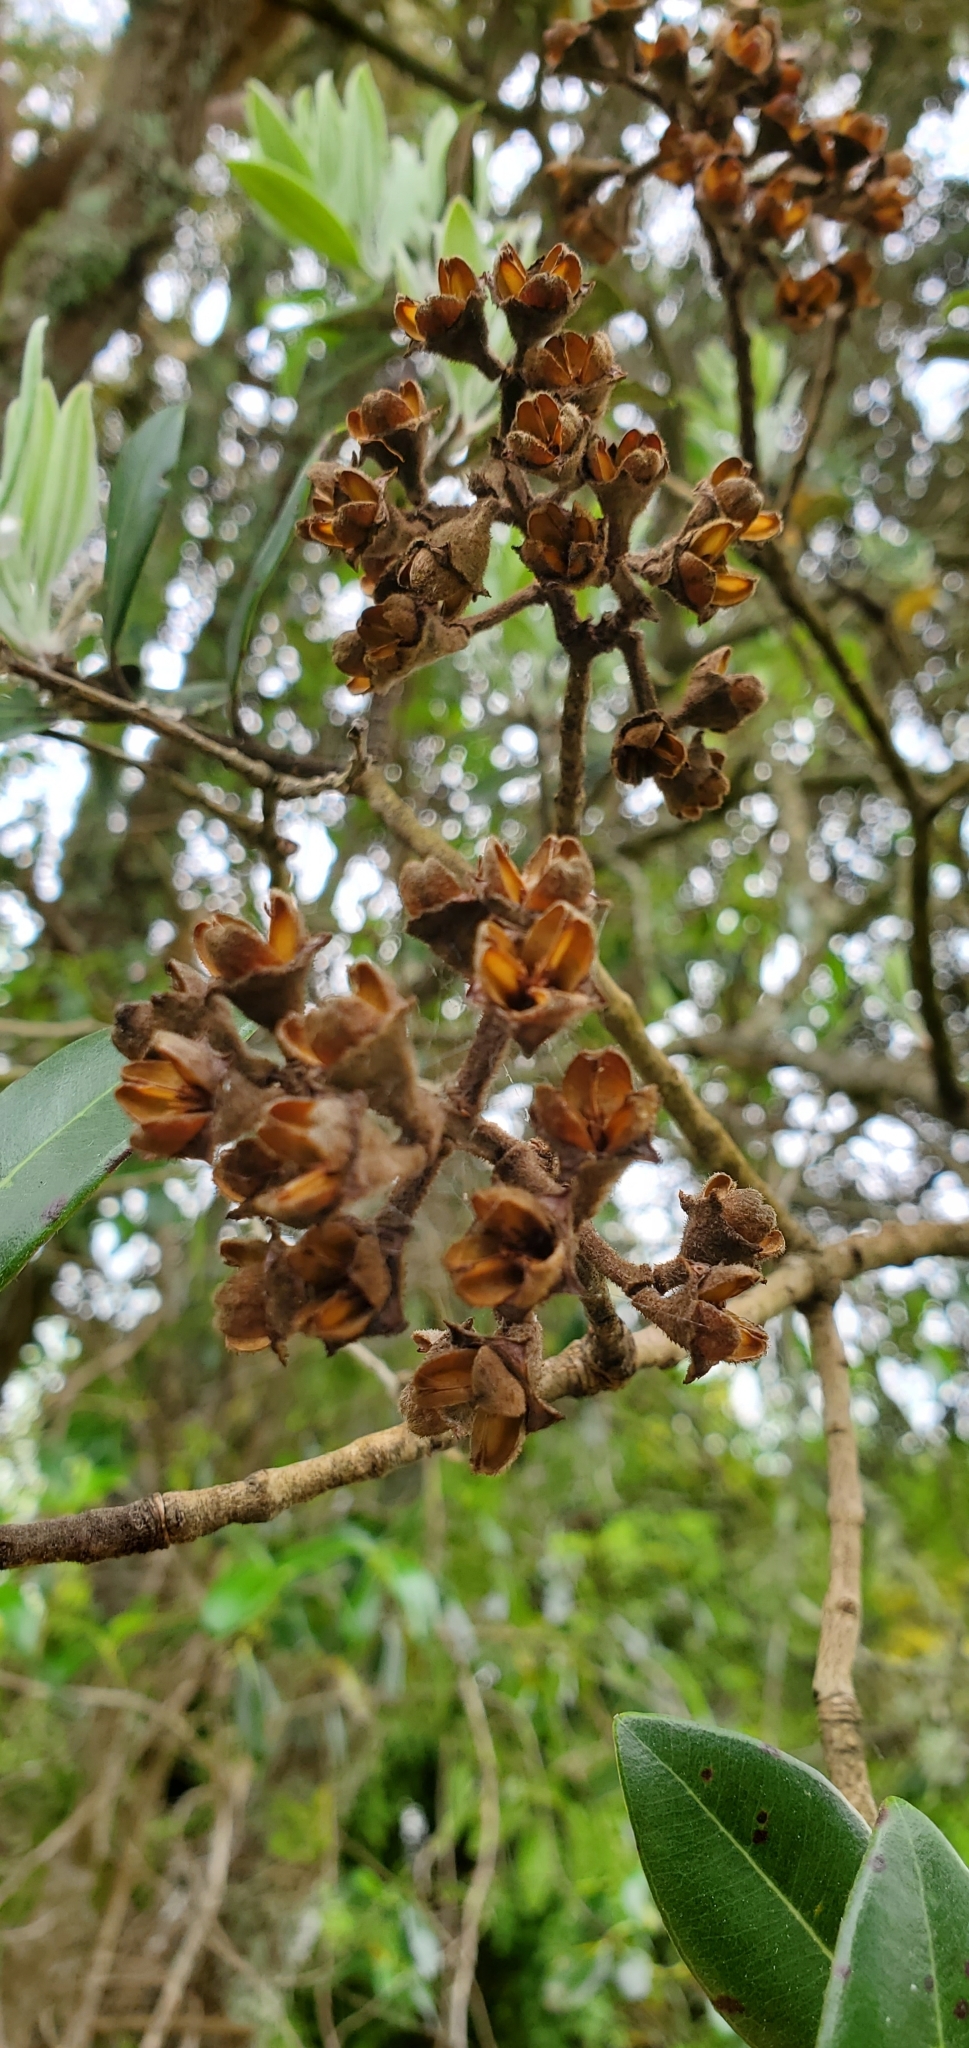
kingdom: Plantae
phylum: Tracheophyta
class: Magnoliopsida
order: Myrtales
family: Myrtaceae
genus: Metrosideros
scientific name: Metrosideros excelsa
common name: New zealand christmastree
